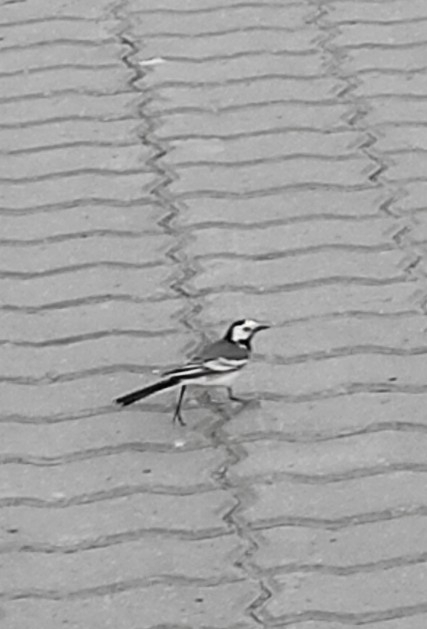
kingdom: Animalia
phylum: Chordata
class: Aves
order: Passeriformes
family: Motacillidae
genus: Motacilla
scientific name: Motacilla alba
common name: White wagtail
